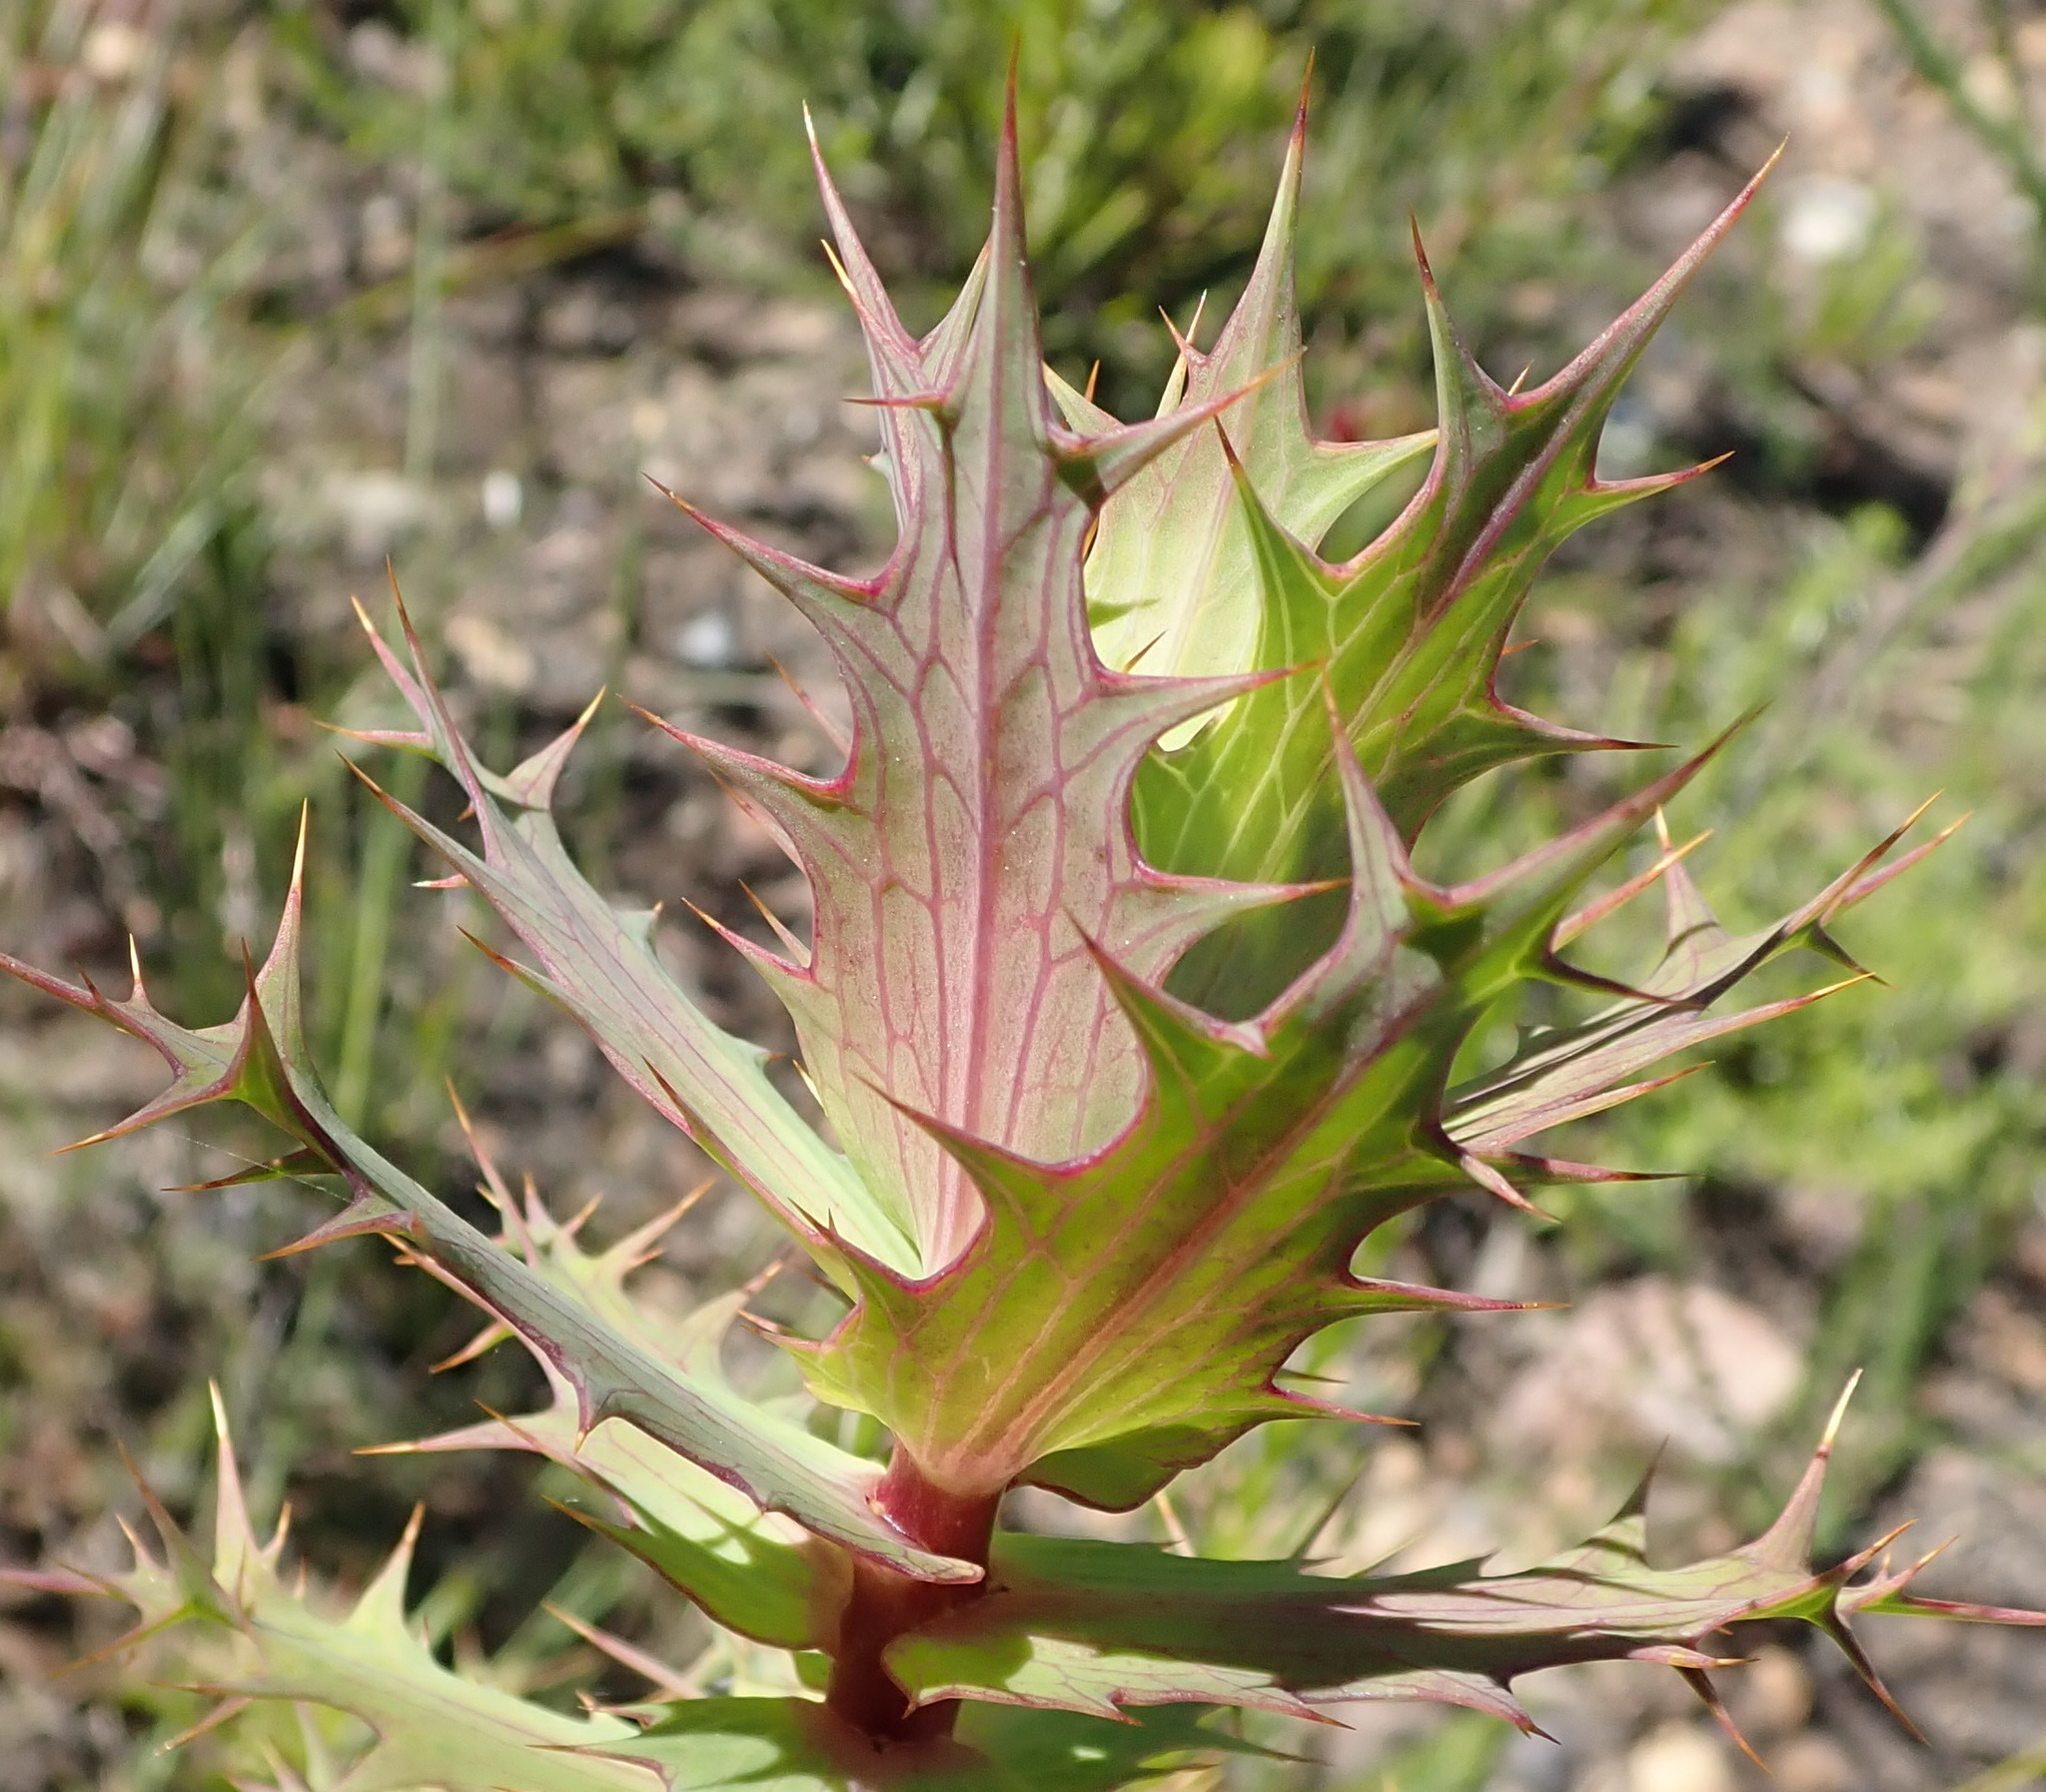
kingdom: Plantae
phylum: Tracheophyta
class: Magnoliopsida
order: Asterales
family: Asteraceae
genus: Berkheya
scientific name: Berkheya cruciata
